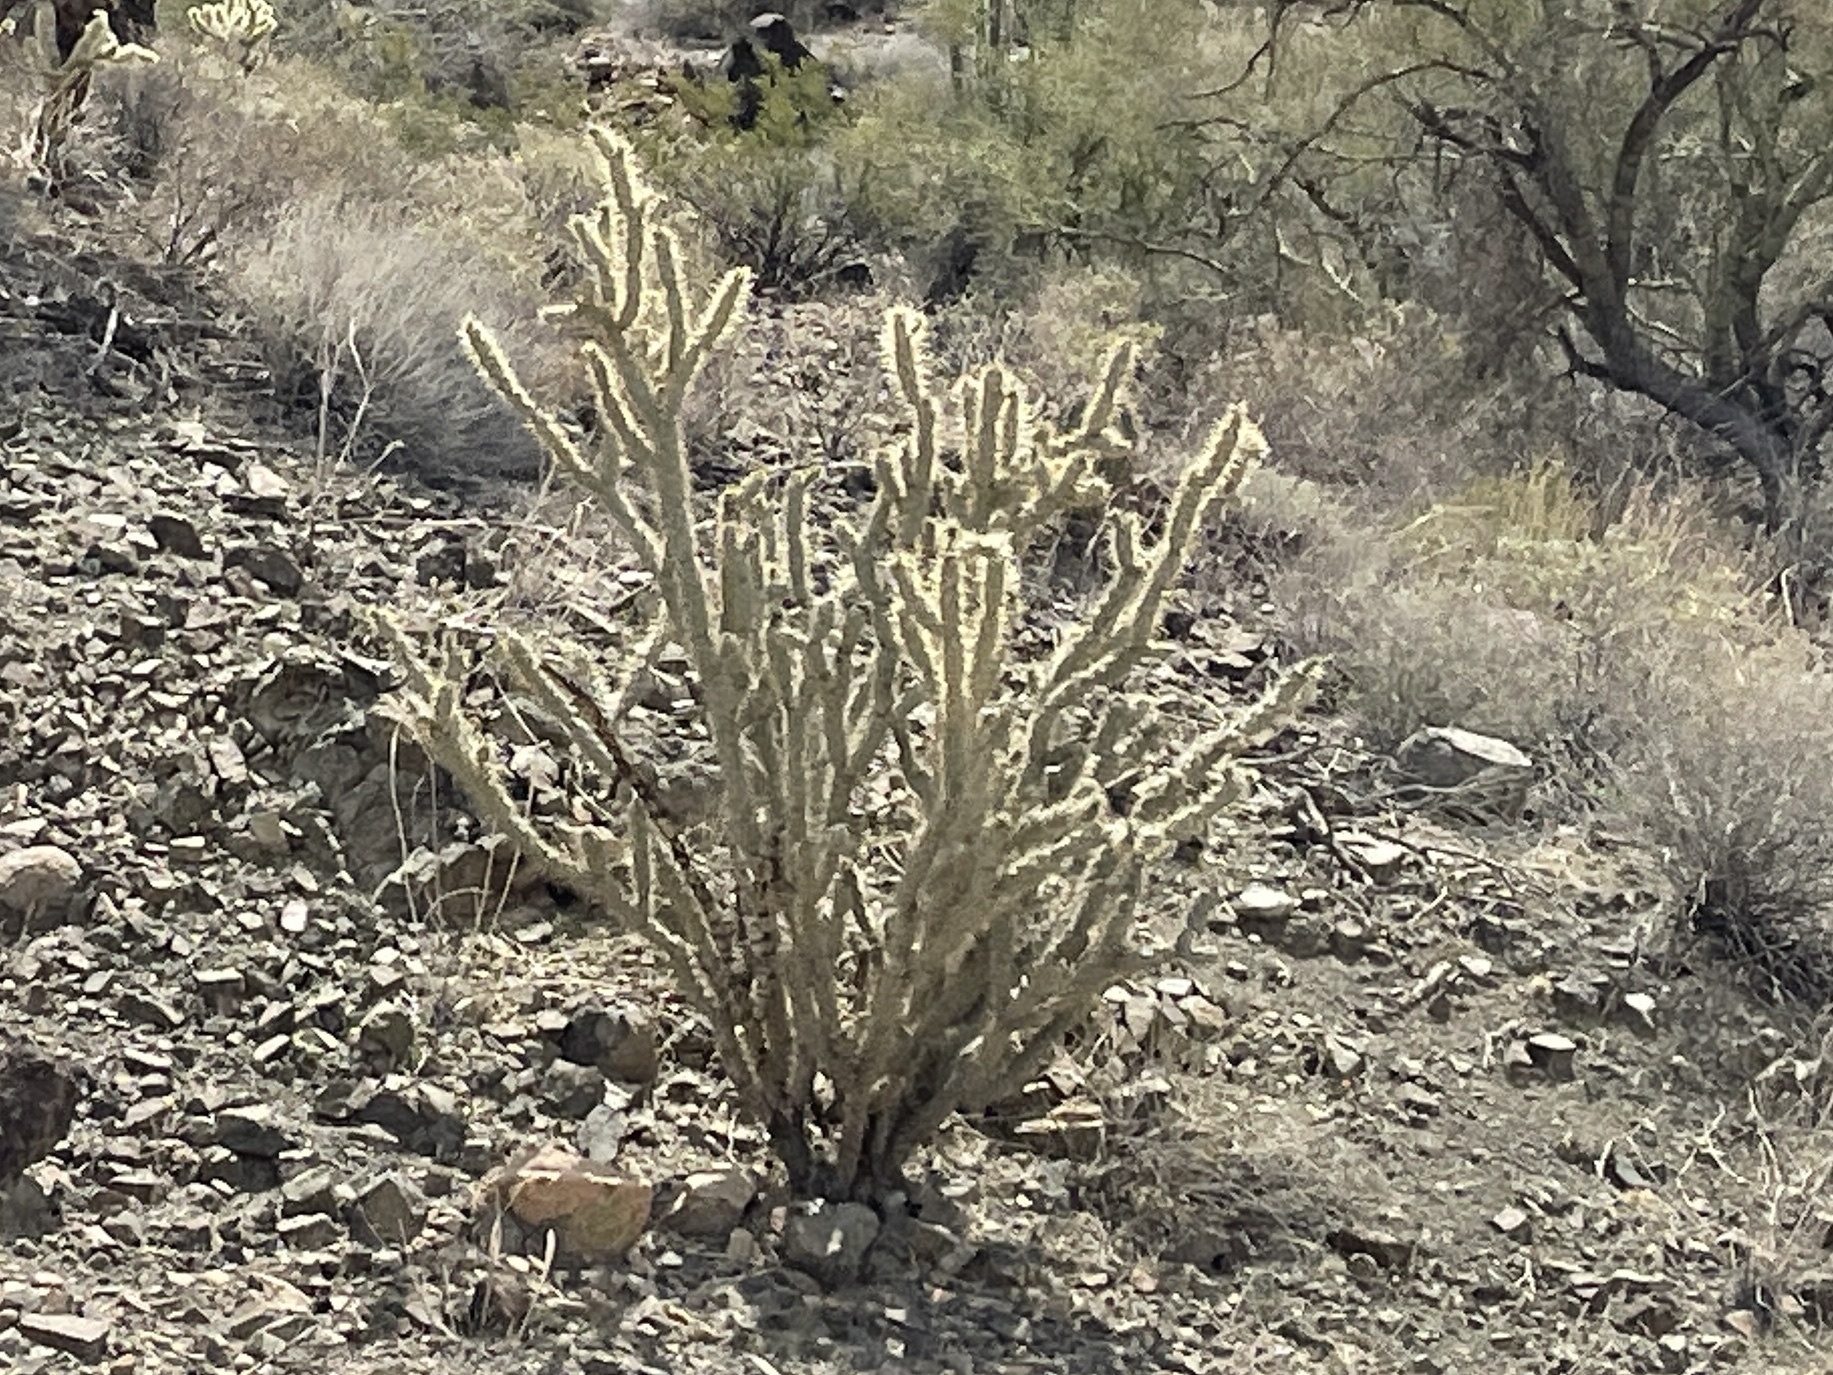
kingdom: Plantae
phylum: Tracheophyta
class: Magnoliopsida
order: Caryophyllales
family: Cactaceae
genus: Cylindropuntia
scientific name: Cylindropuntia acanthocarpa
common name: Buckhorn cholla
